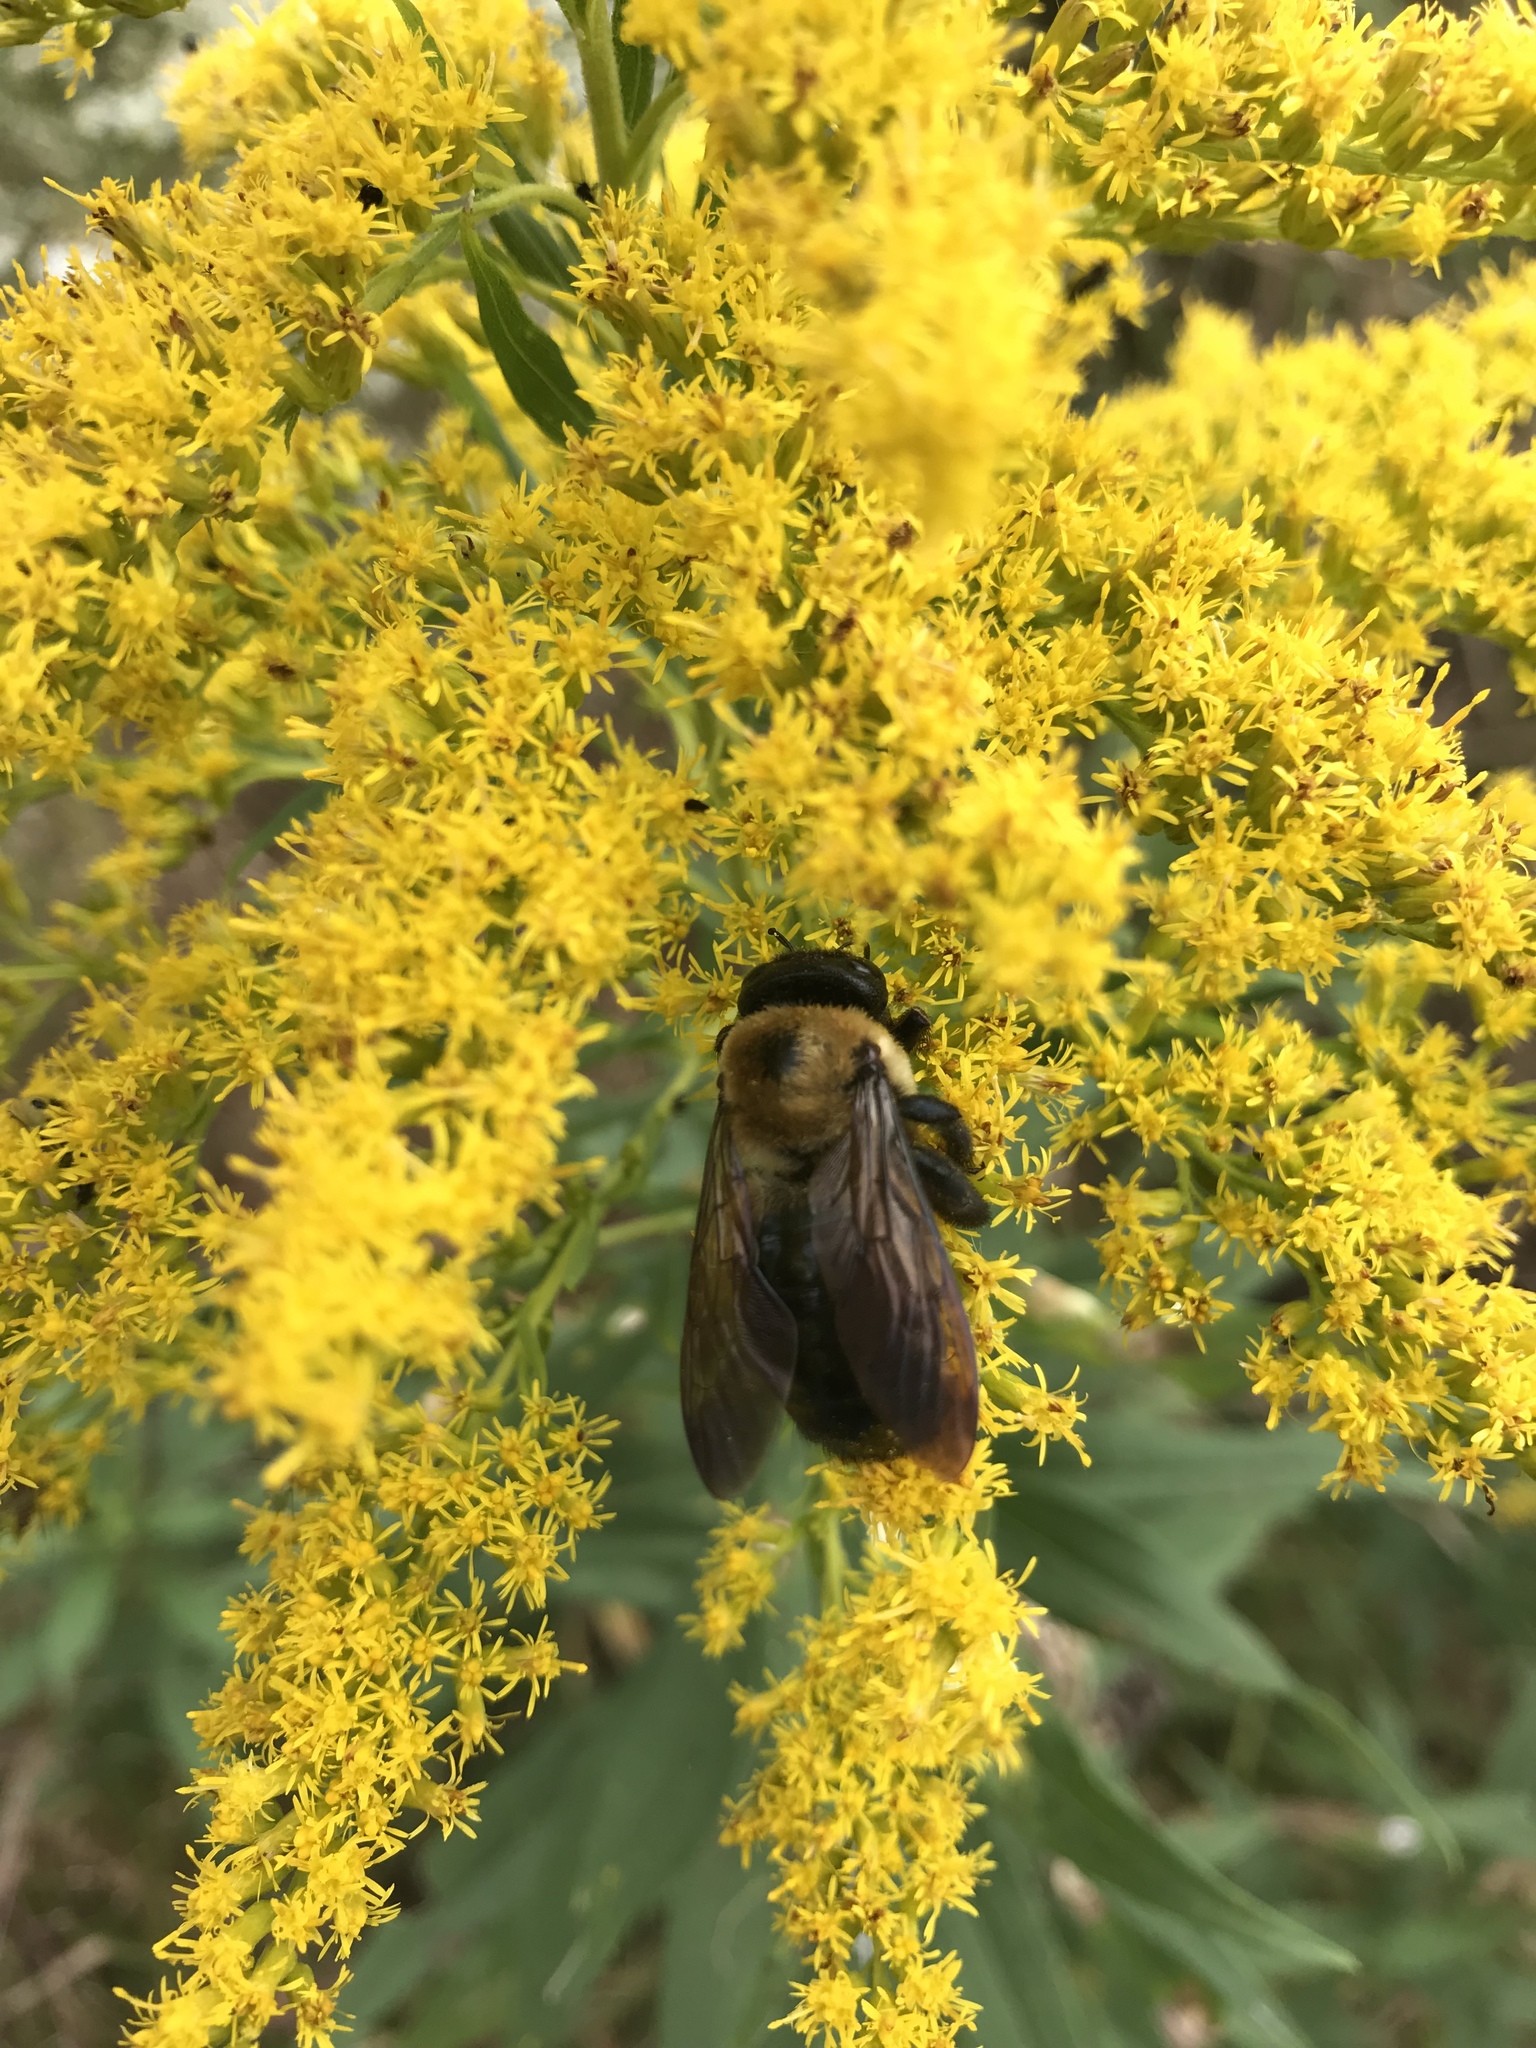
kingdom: Animalia
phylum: Arthropoda
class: Insecta
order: Hymenoptera
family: Apidae
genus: Xylocopa
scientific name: Xylocopa virginica
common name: Carpenter bee
